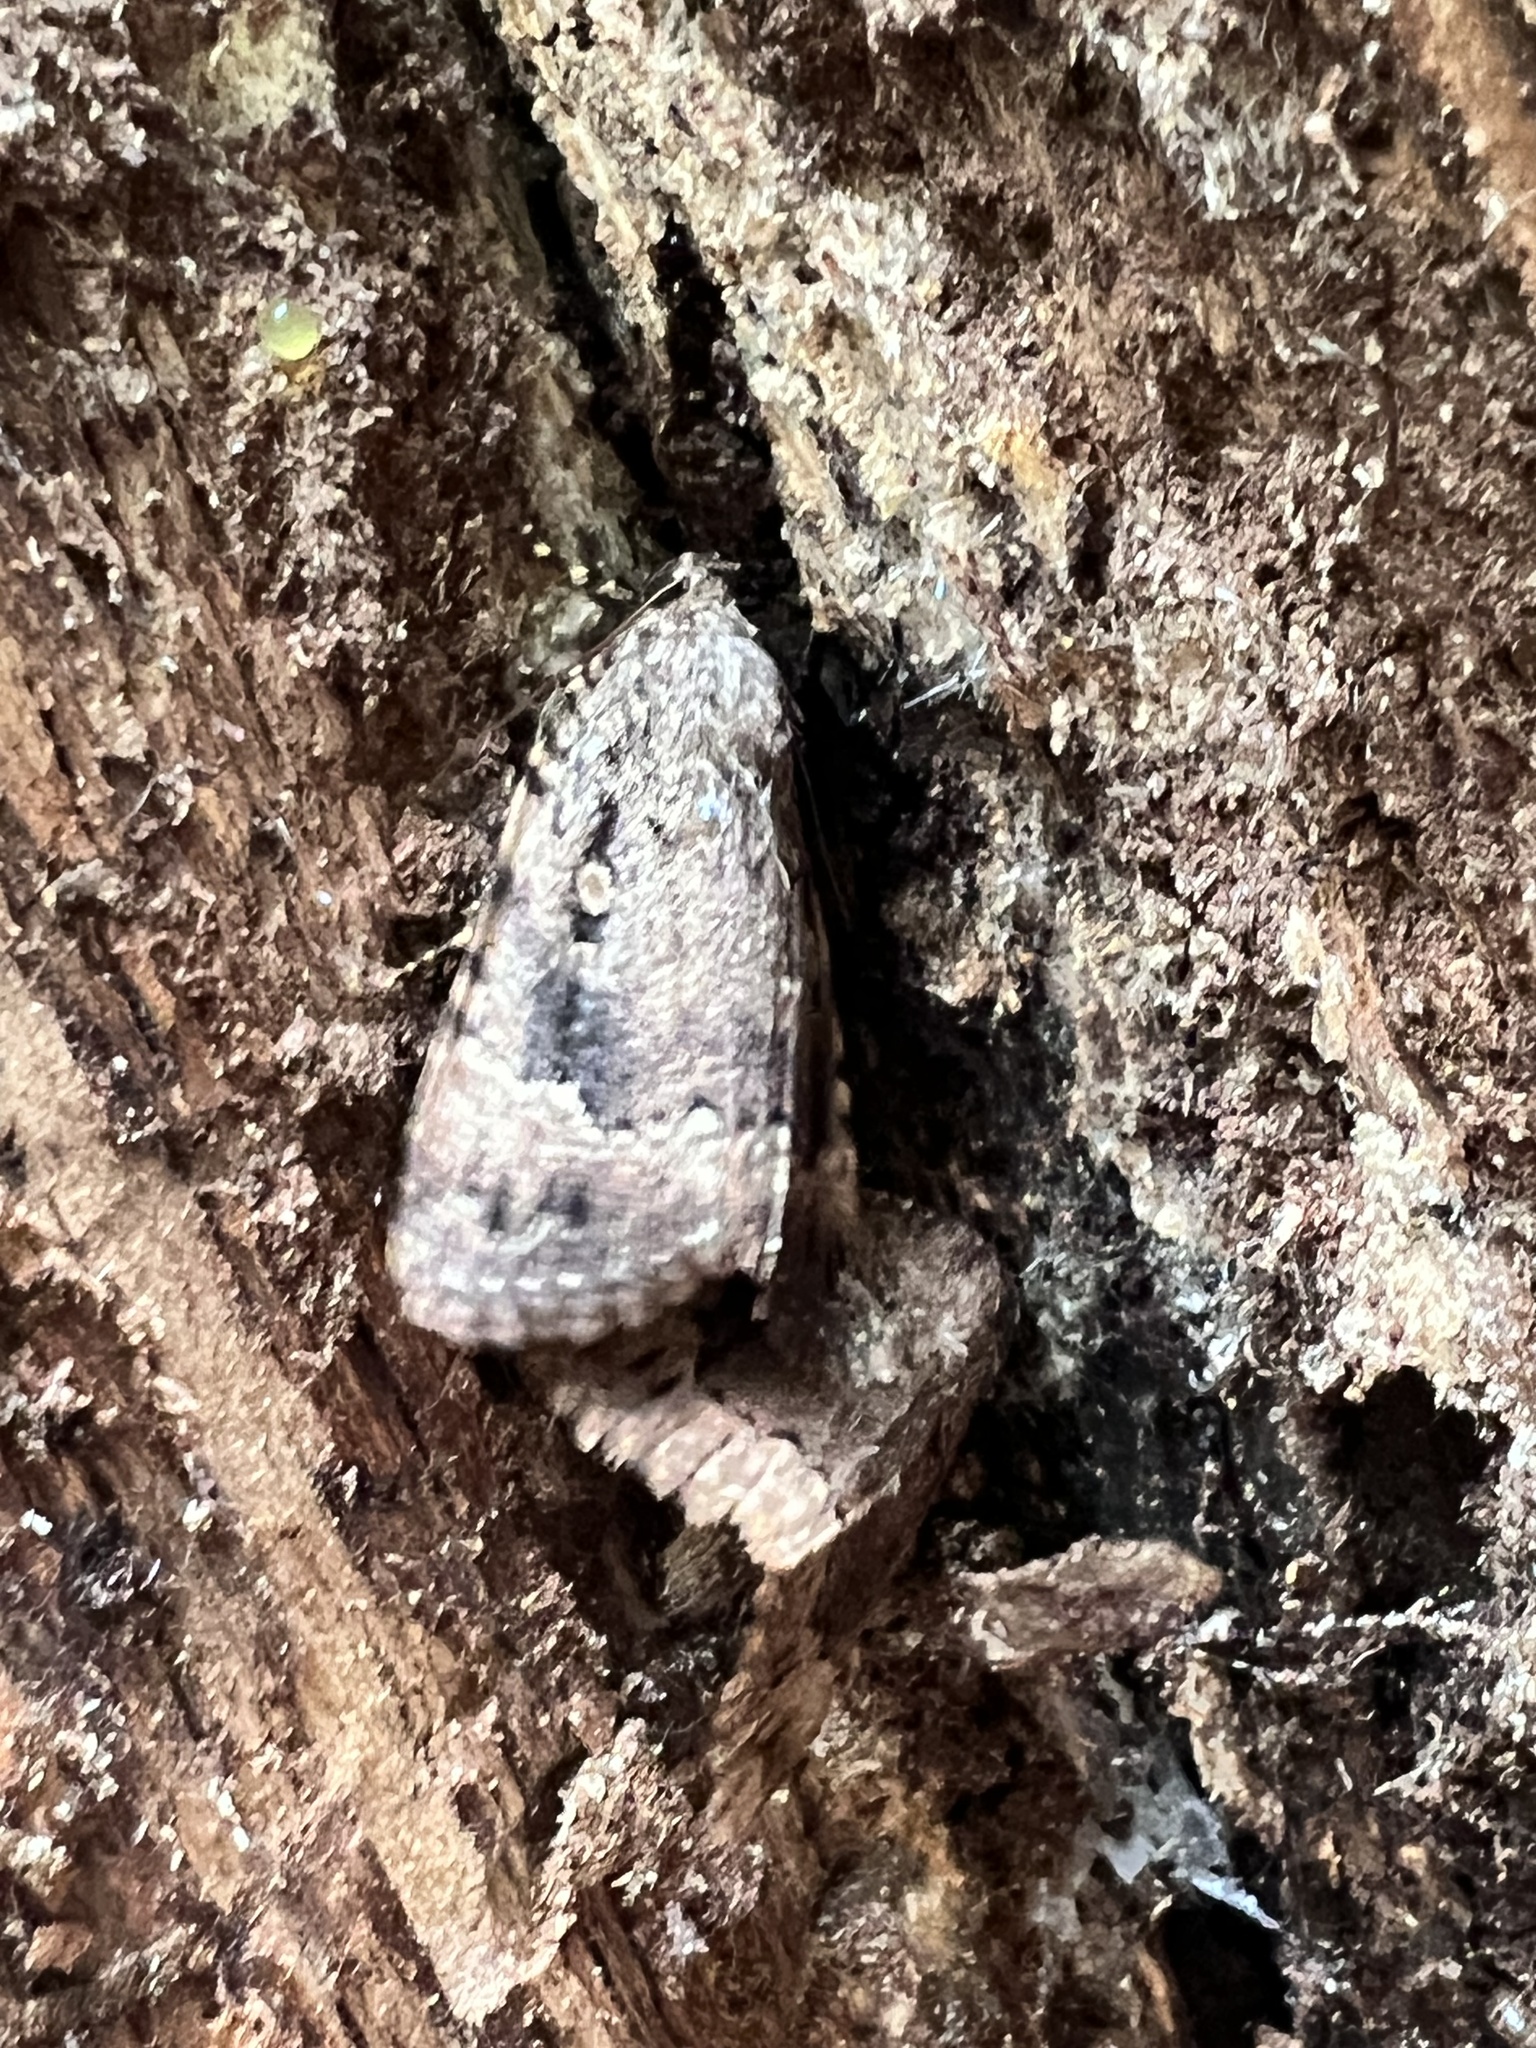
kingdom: Animalia
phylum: Arthropoda
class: Insecta
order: Lepidoptera
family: Noctuidae
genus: Amphipyra
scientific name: Amphipyra pyramidoides
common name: American copper underwing
